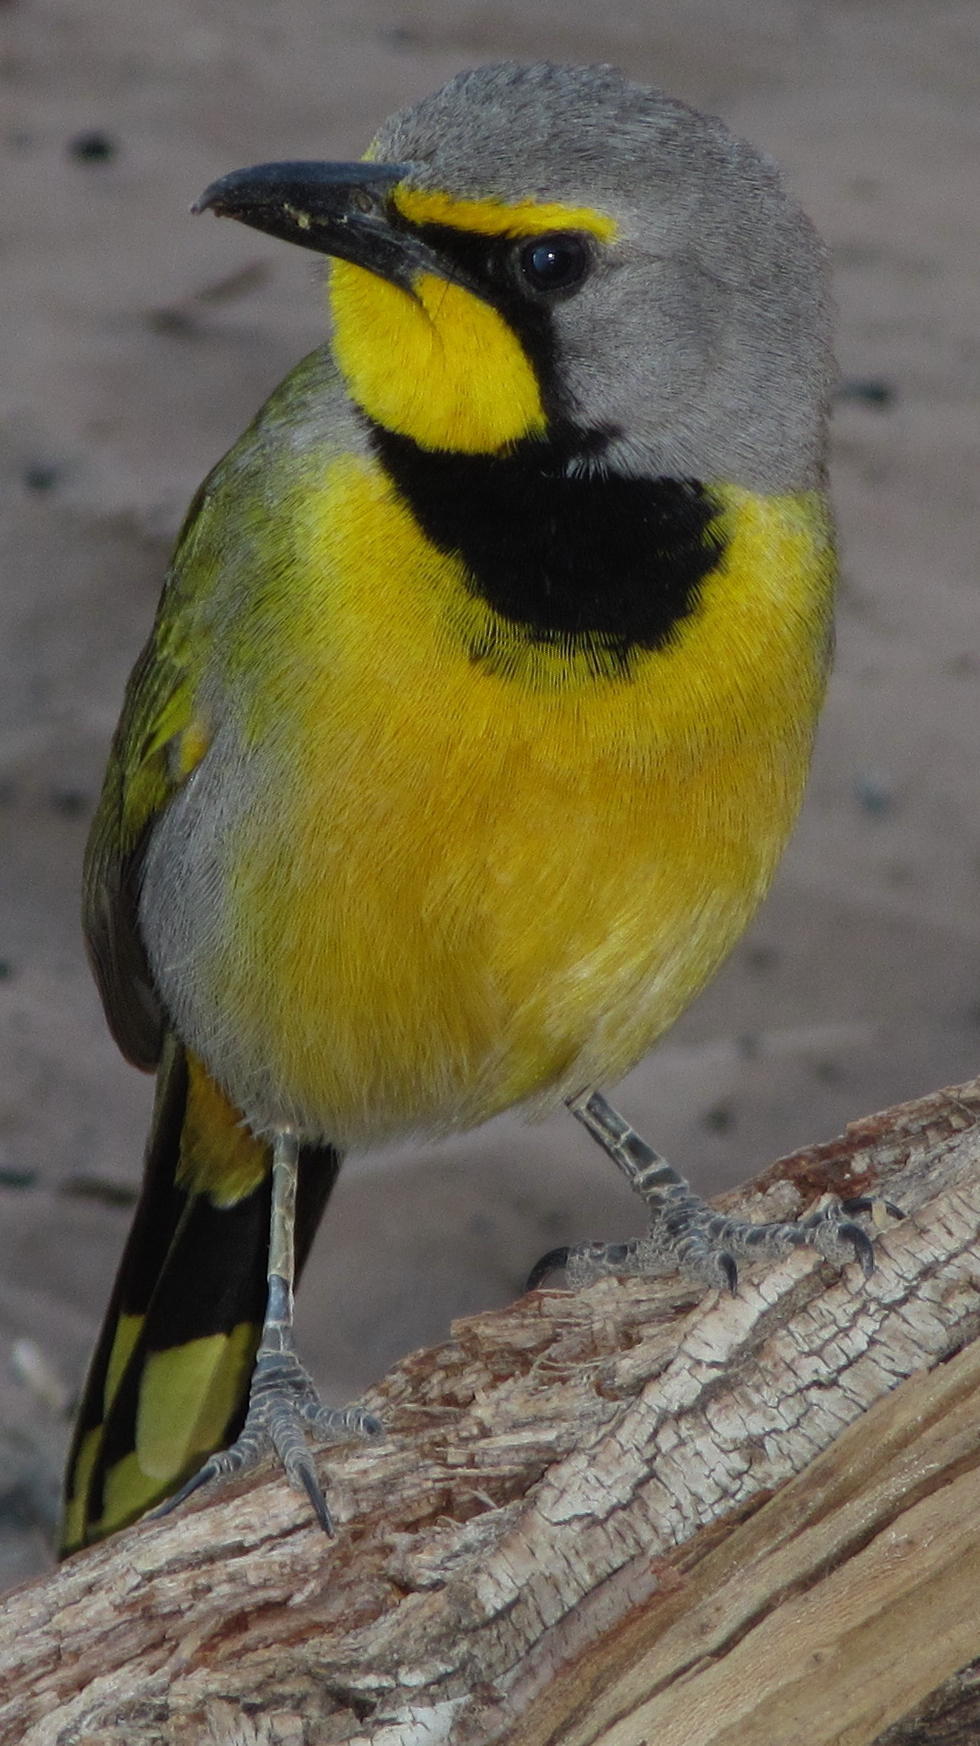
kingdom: Animalia
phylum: Chordata
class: Aves
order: Passeriformes
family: Malaconotidae
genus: Telophorus
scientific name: Telophorus zeylonus
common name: Bokmakierie
